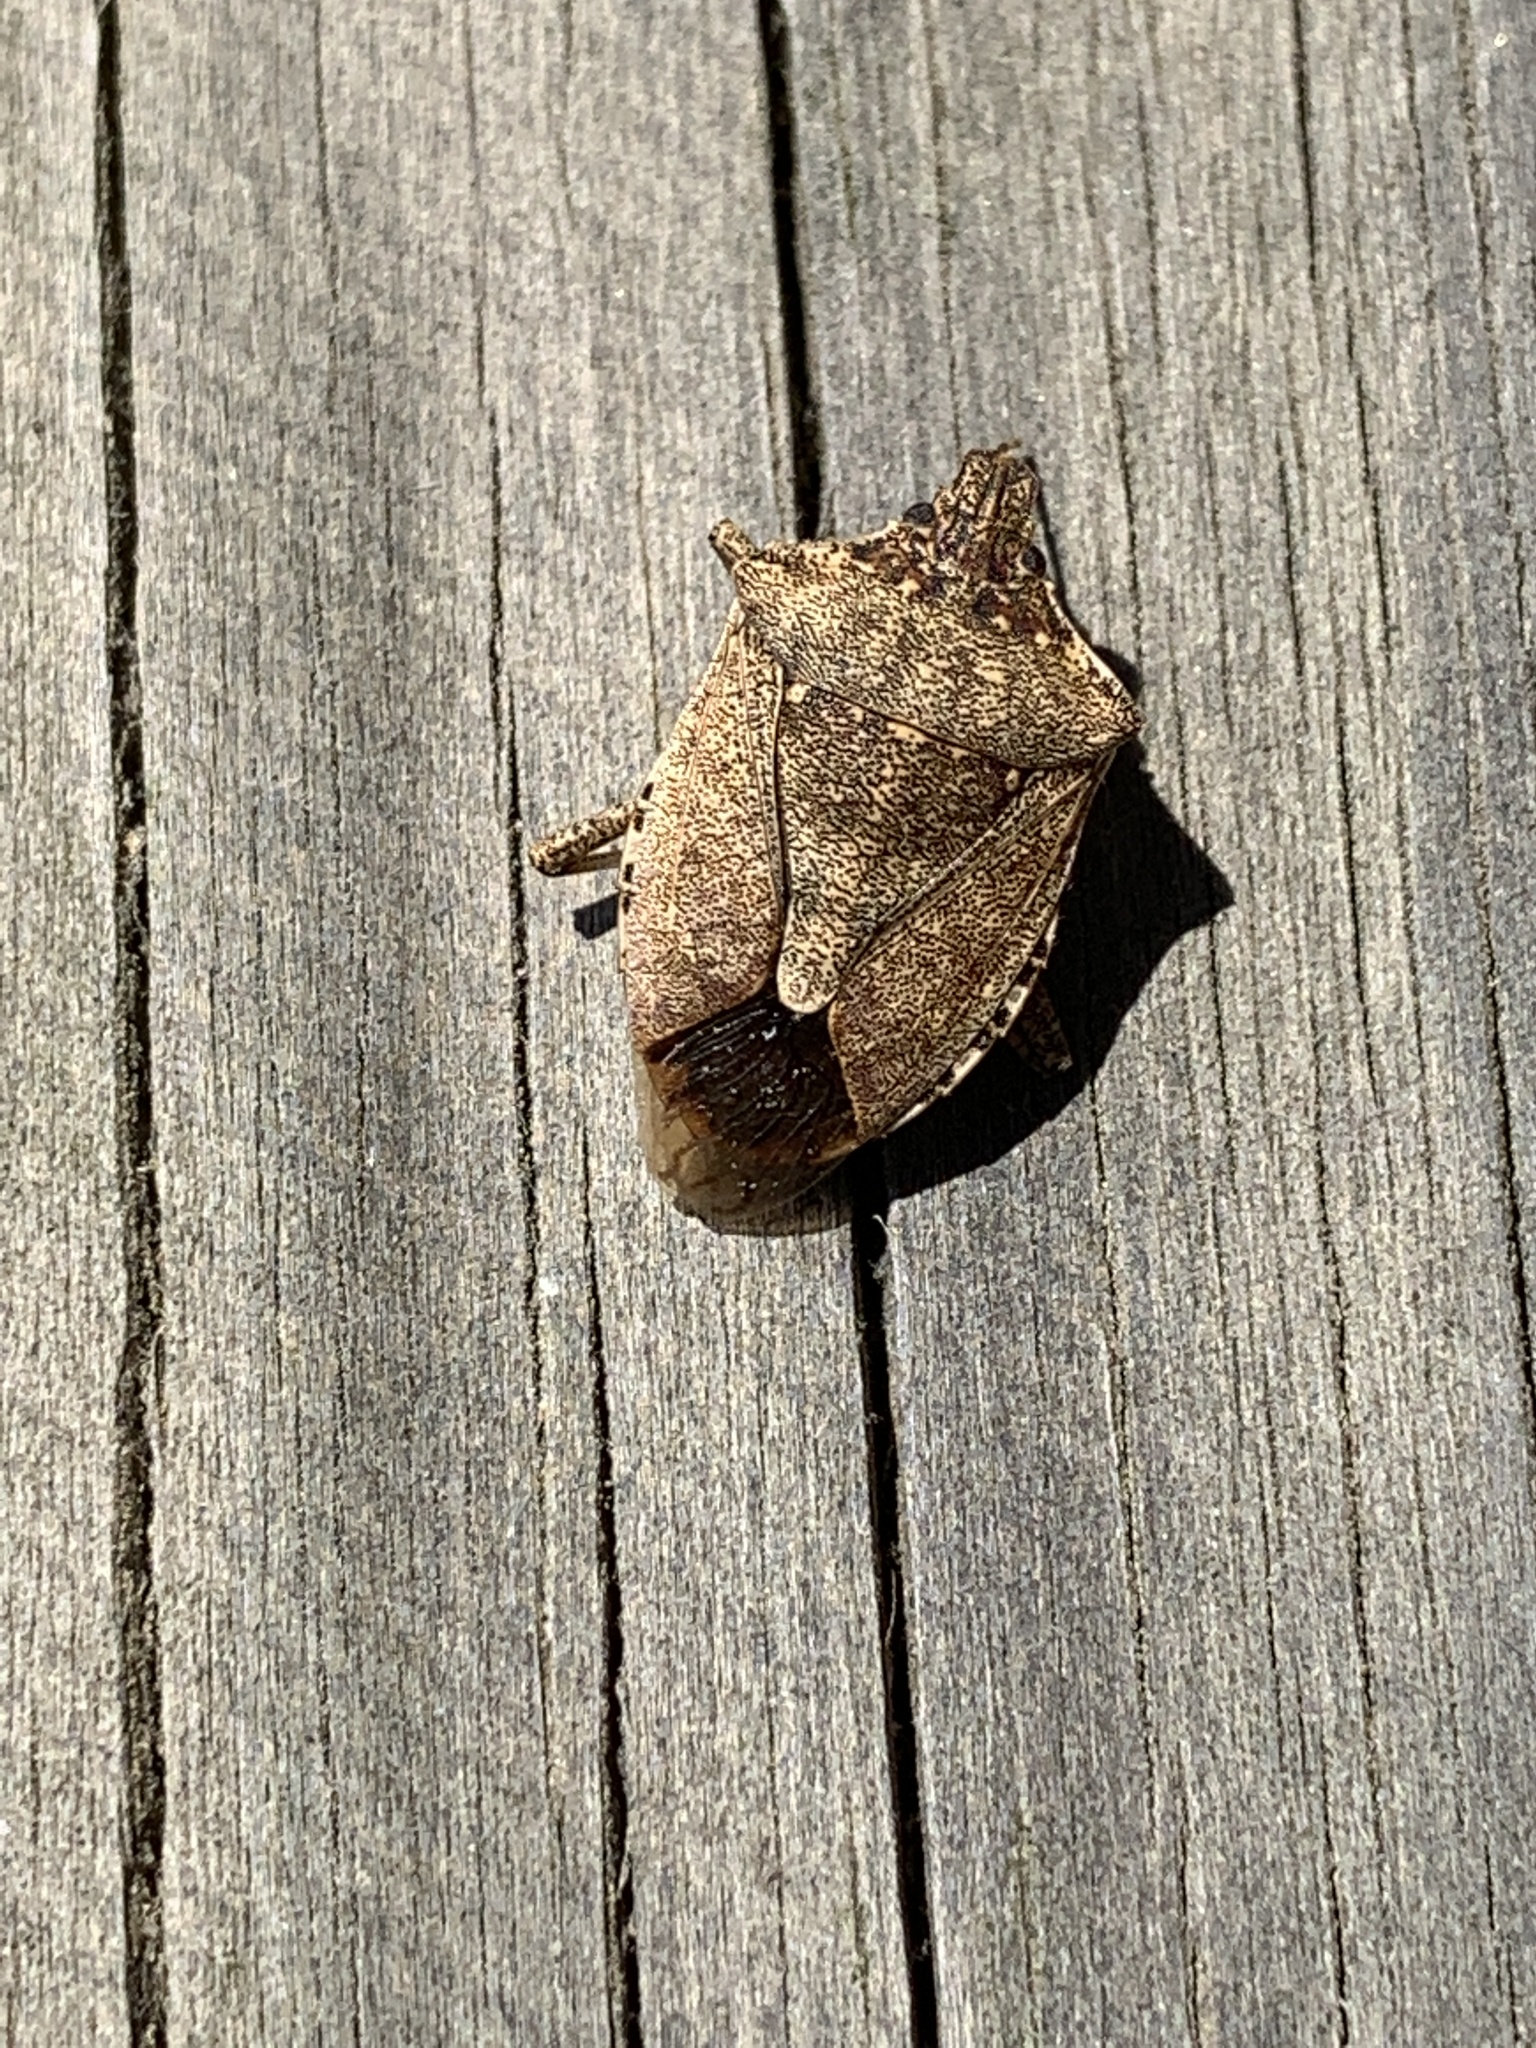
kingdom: Animalia
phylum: Arthropoda
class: Insecta
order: Hemiptera
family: Pentatomidae
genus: Halyomorpha
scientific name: Halyomorpha halys
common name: Brown marmorated stink bug
